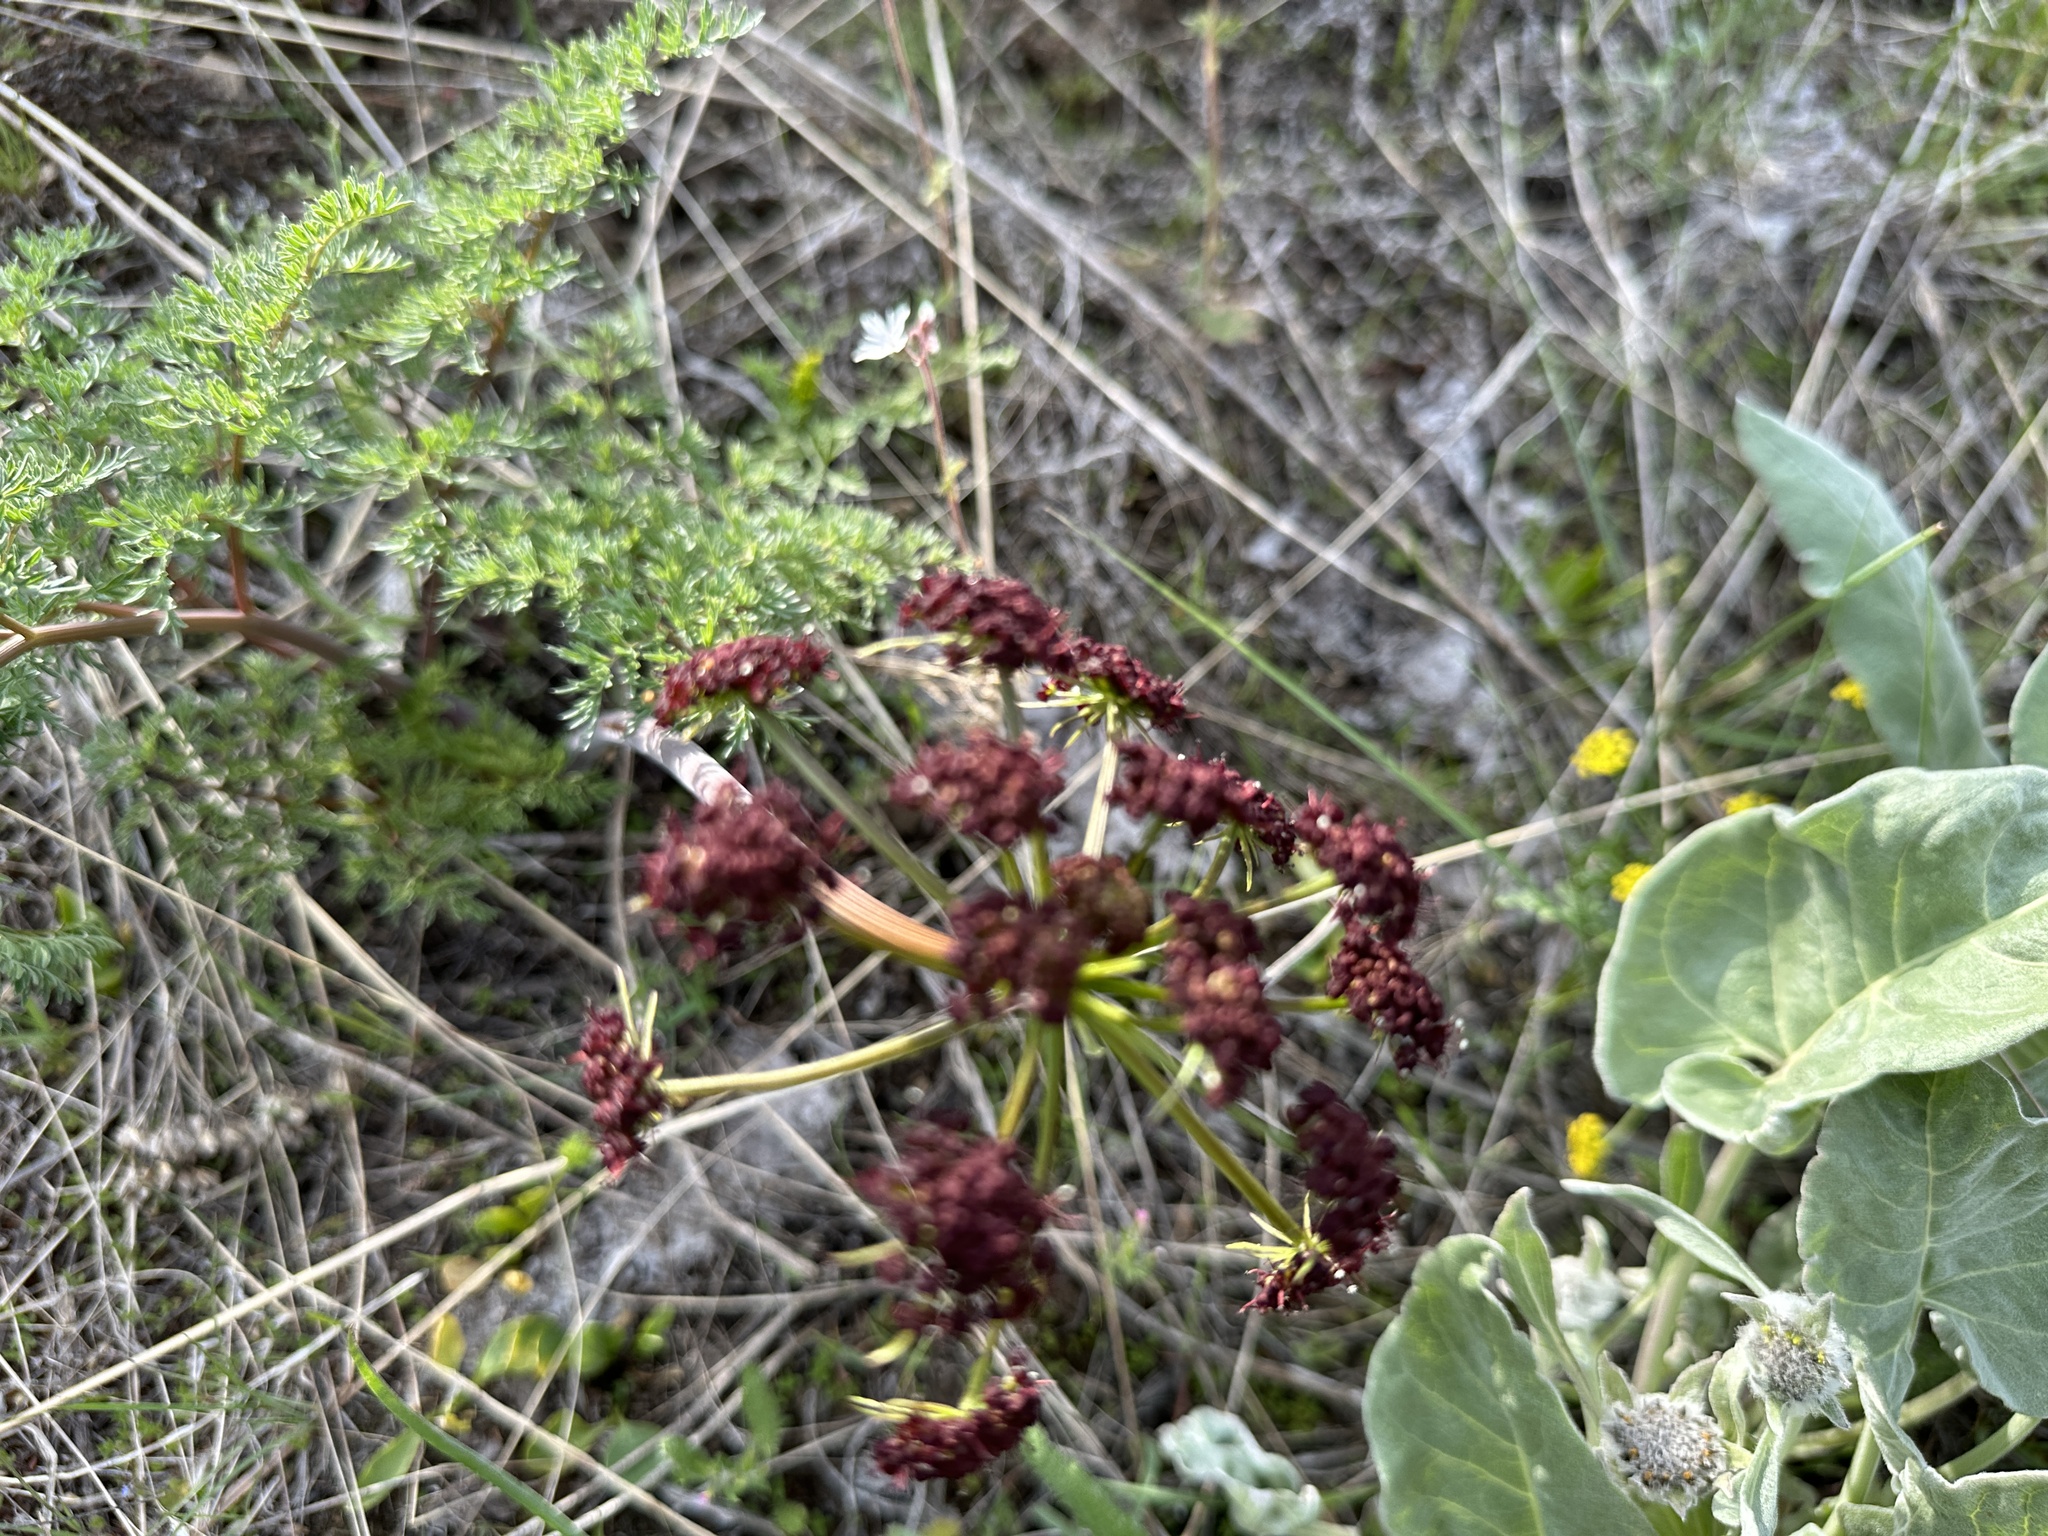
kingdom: Plantae
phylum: Tracheophyta
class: Magnoliopsida
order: Apiales
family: Apiaceae
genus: Lomatium
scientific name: Lomatium multifidum
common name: Carrot-leaved biscuitroot
